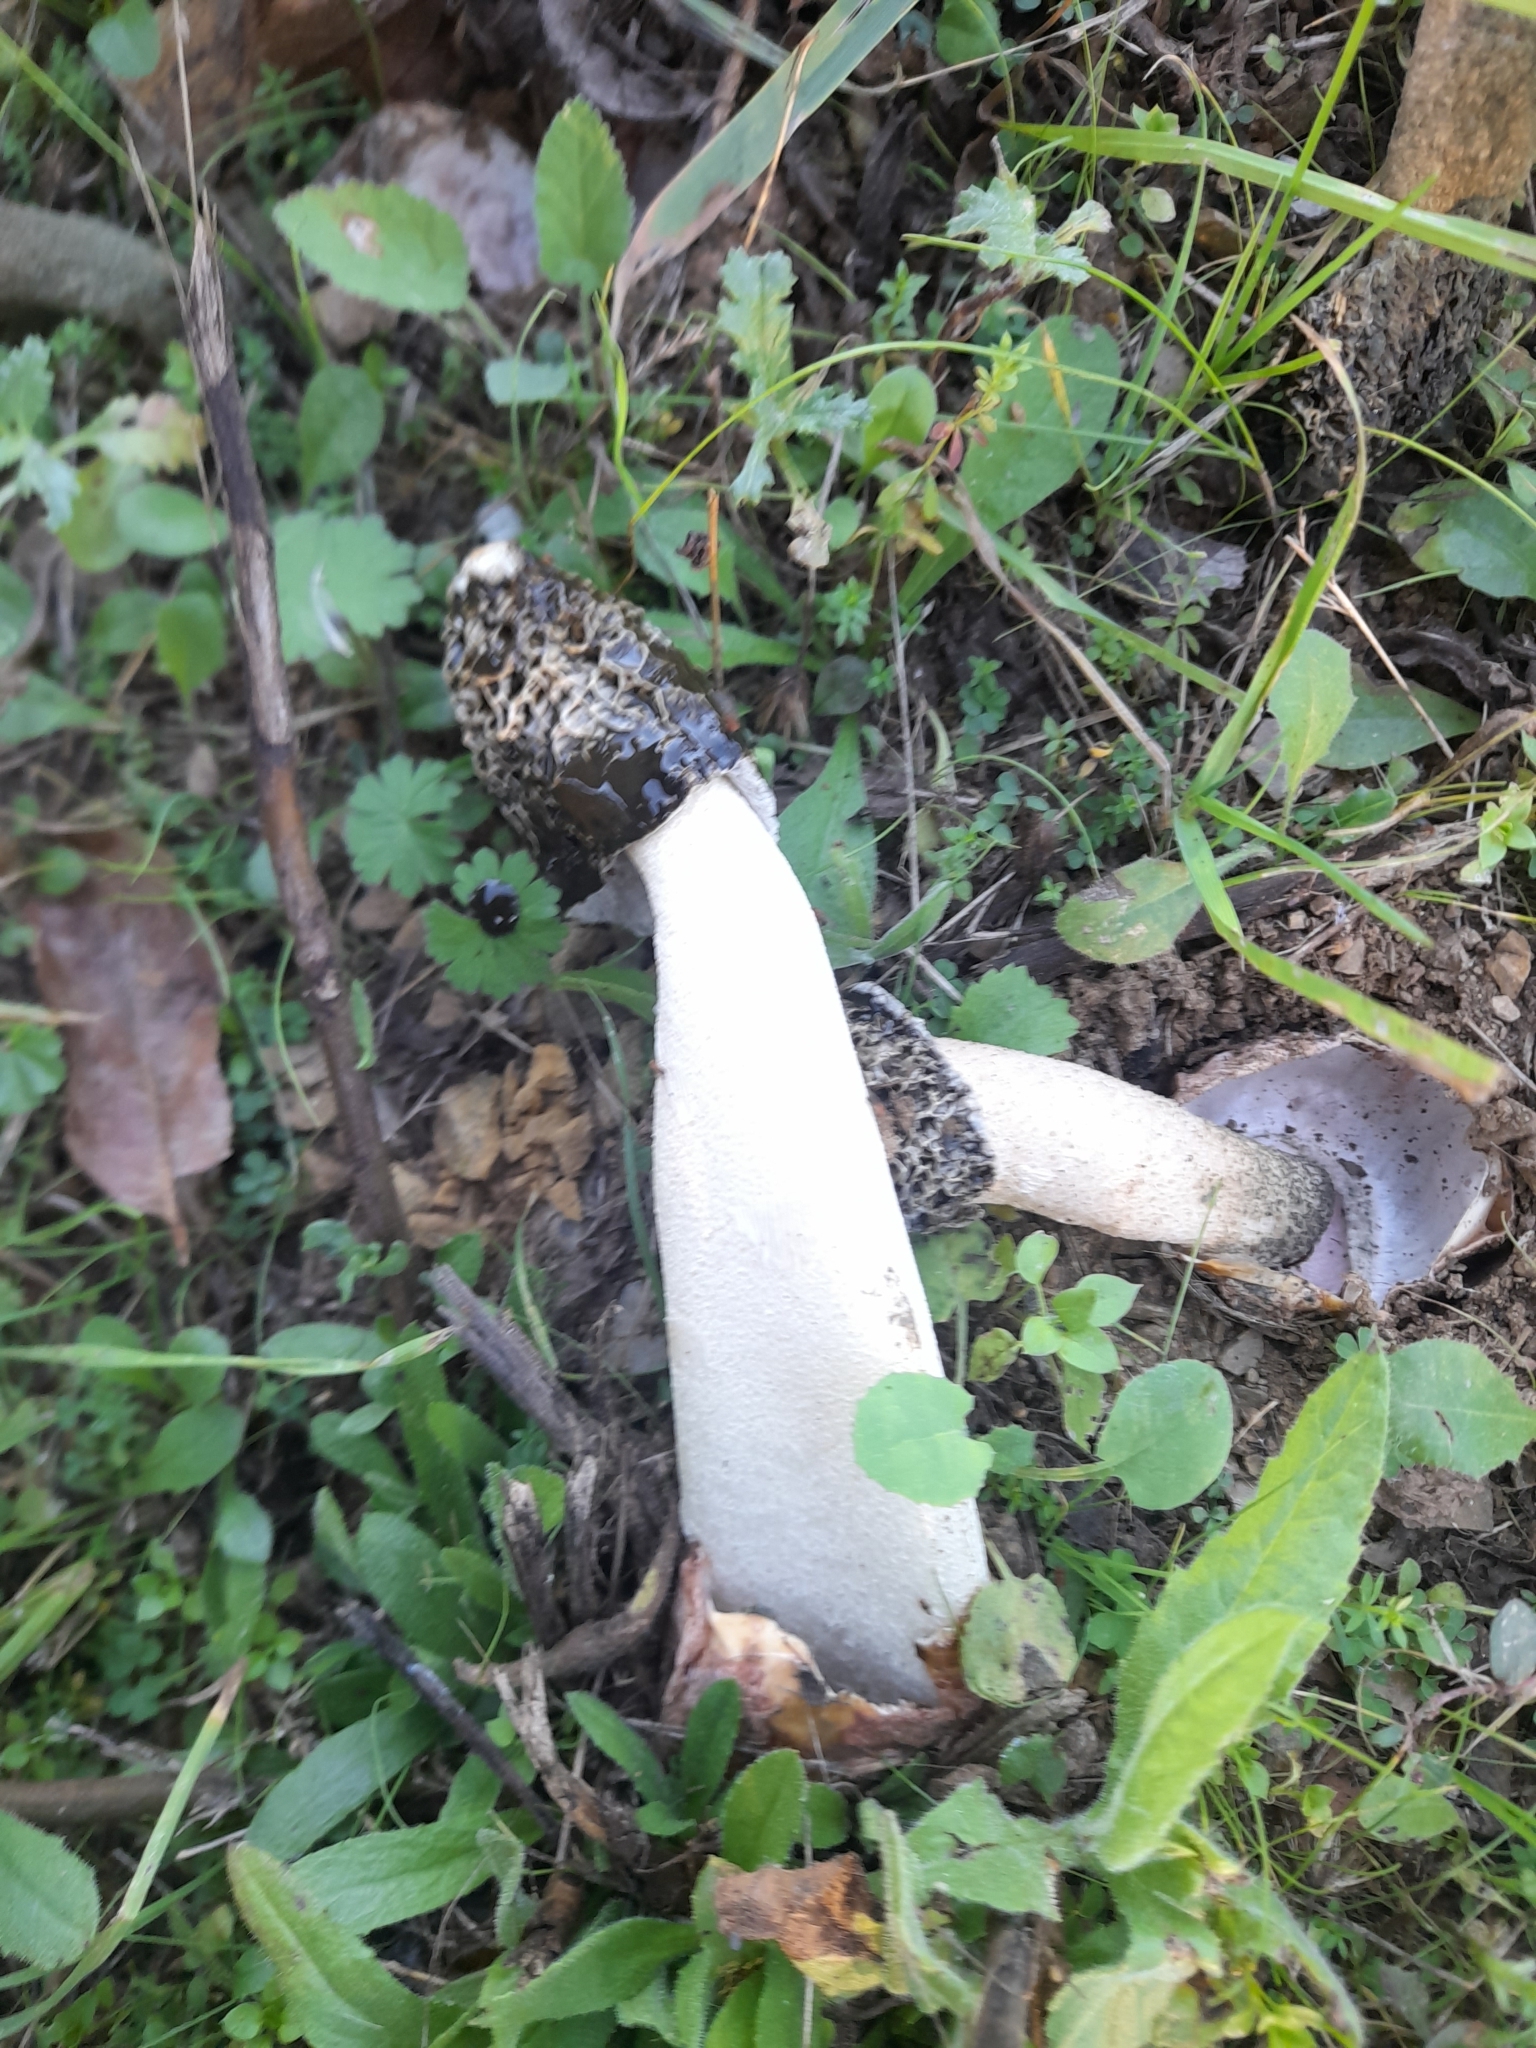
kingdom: Fungi
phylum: Basidiomycota
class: Agaricomycetes
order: Phallales
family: Phallaceae
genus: Phallus
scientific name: Phallus hadriani
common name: Sand stinkhorn
